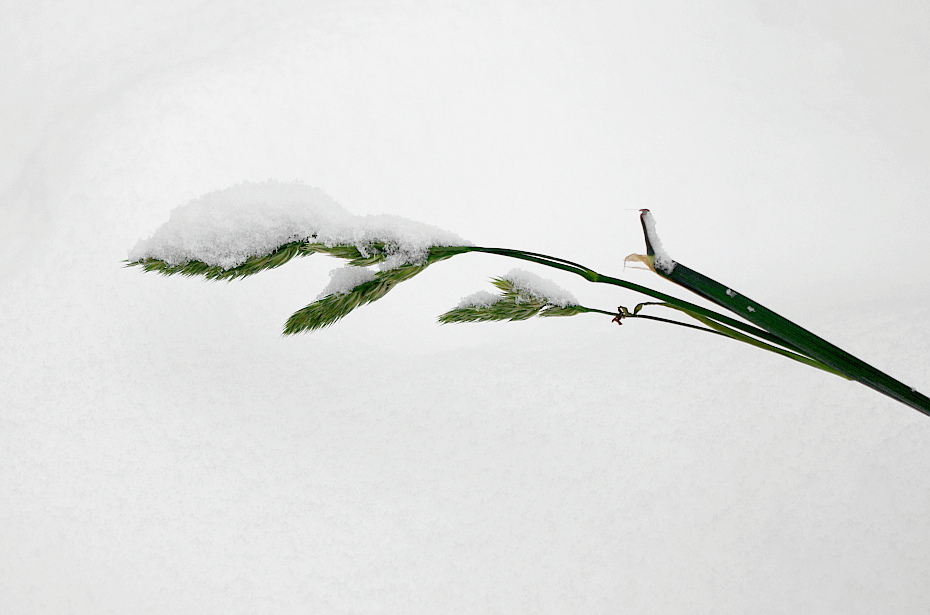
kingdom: Plantae
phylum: Tracheophyta
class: Liliopsida
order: Poales
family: Poaceae
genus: Dactylis
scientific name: Dactylis glomerata
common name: Orchardgrass
